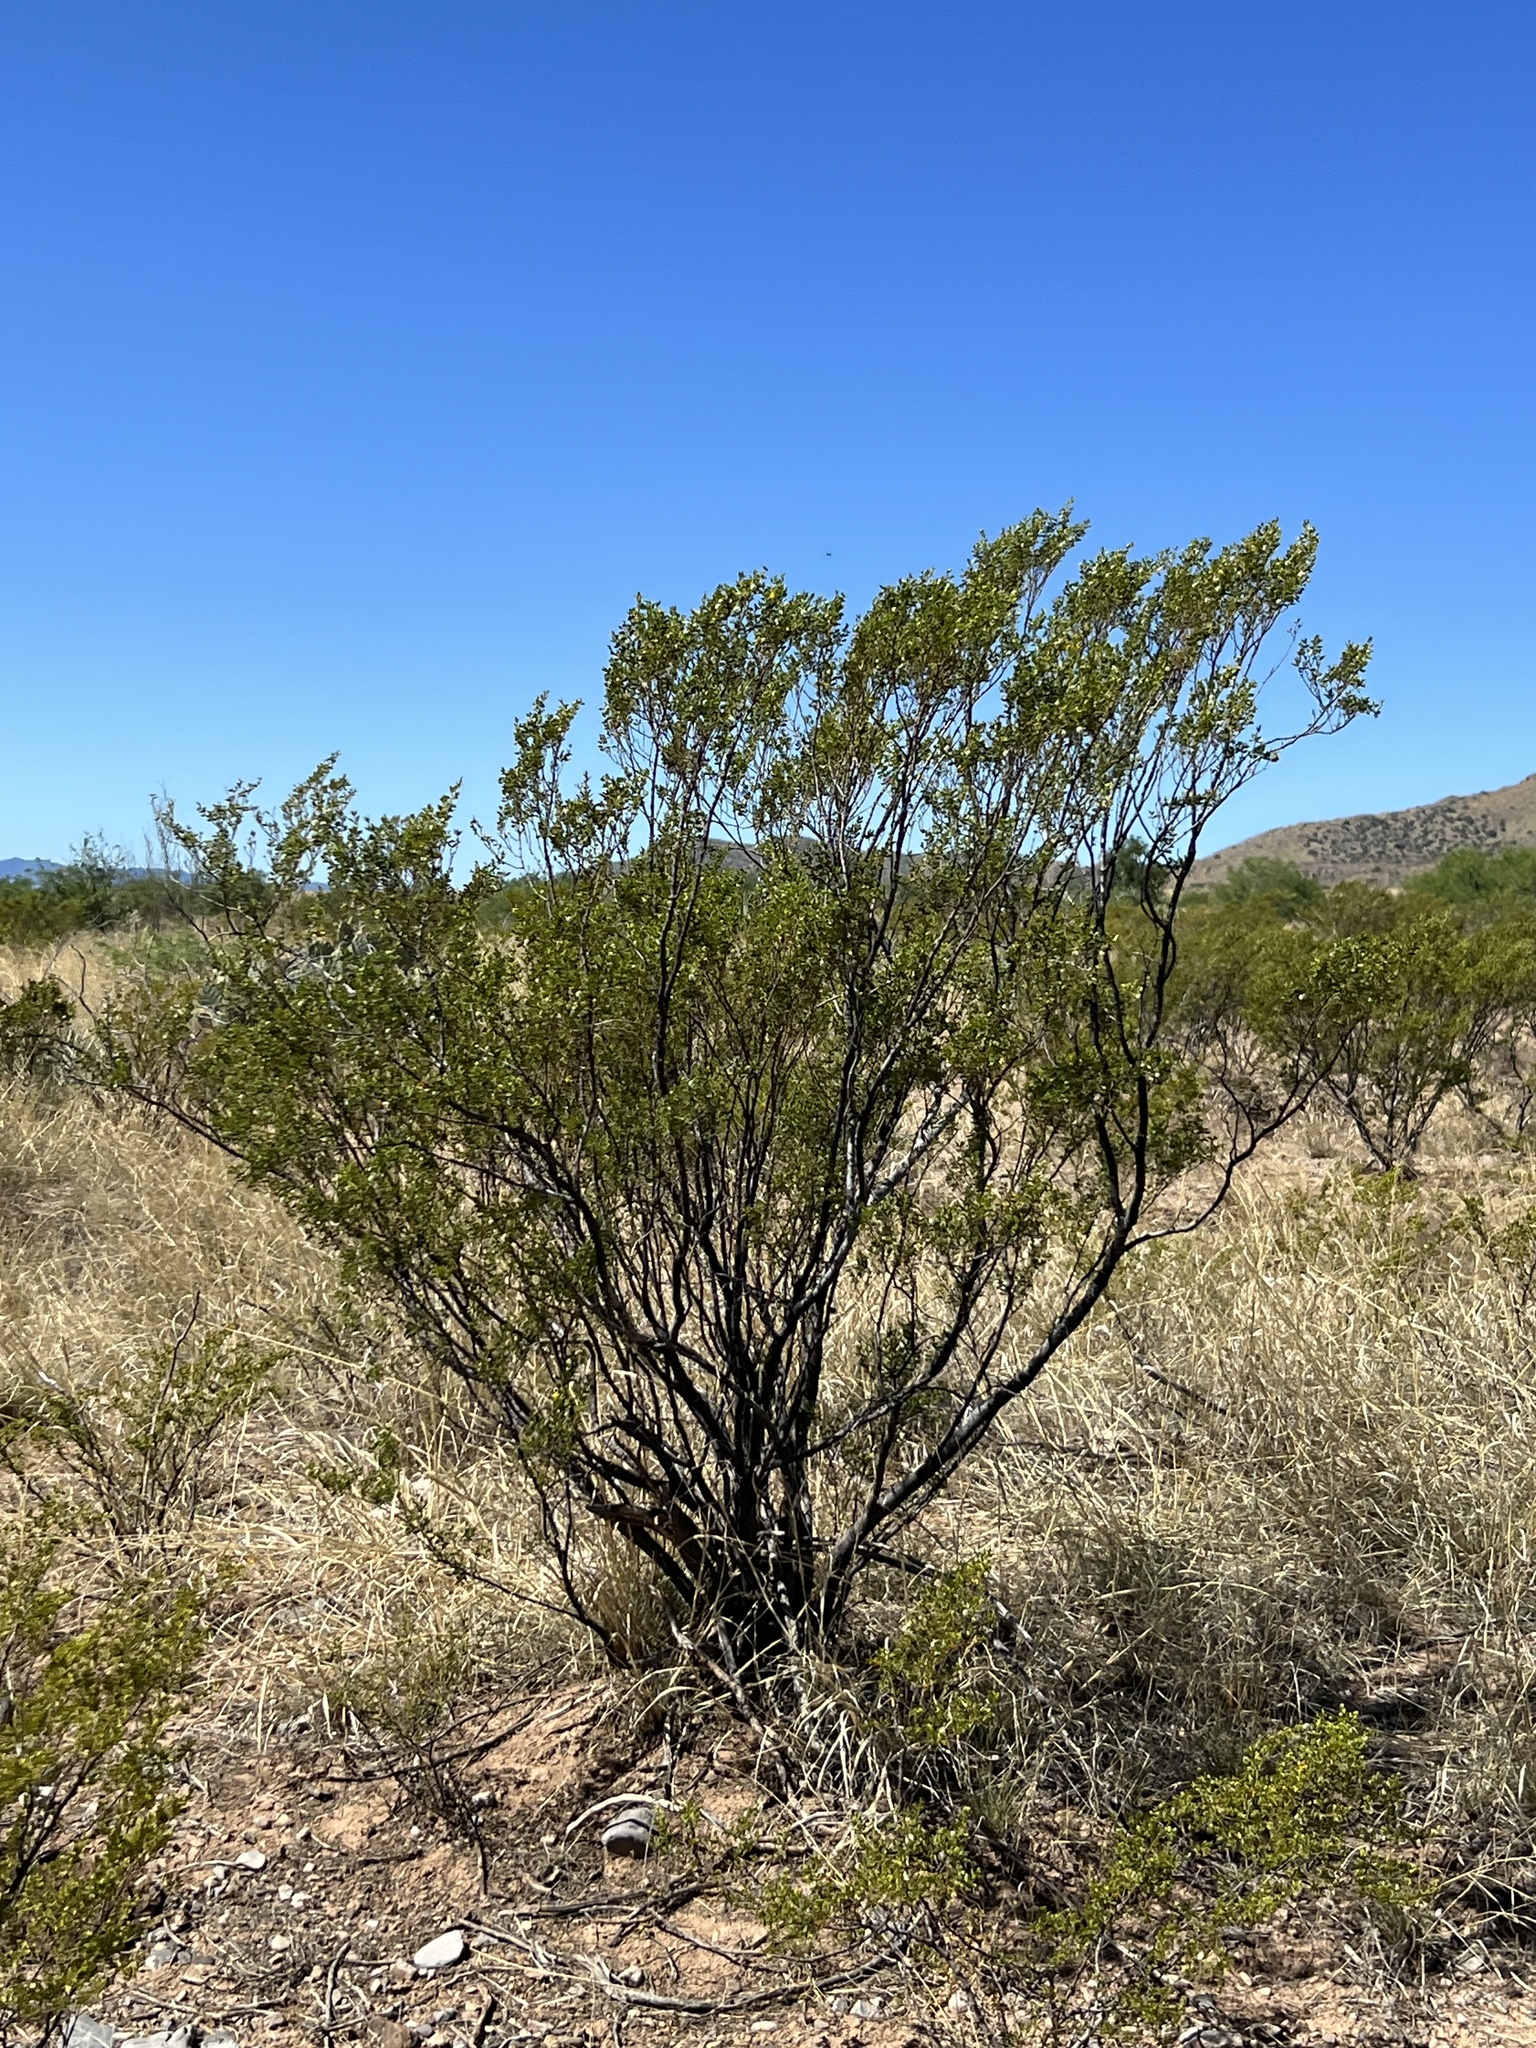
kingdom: Plantae
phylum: Tracheophyta
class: Magnoliopsida
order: Zygophyllales
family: Zygophyllaceae
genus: Larrea
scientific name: Larrea tridentata
